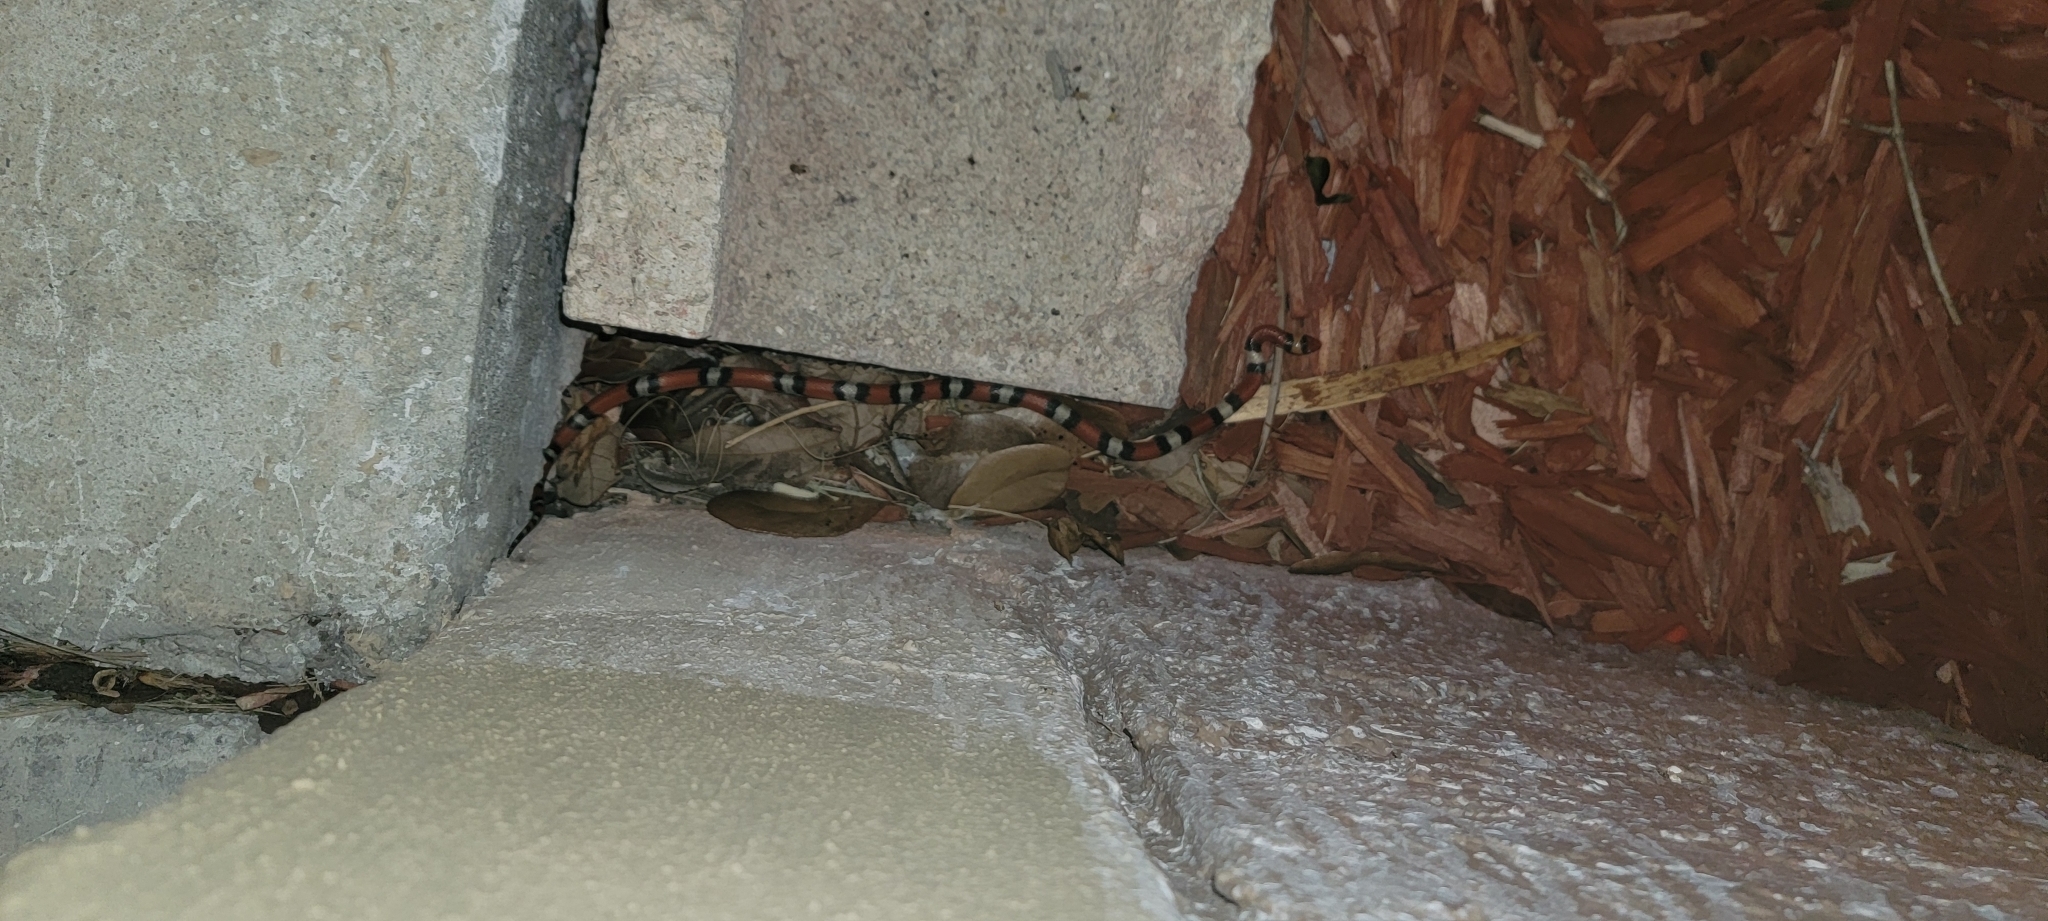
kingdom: Animalia
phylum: Chordata
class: Squamata
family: Colubridae
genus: Cemophora
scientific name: Cemophora coccinea
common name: Scarlet snake
